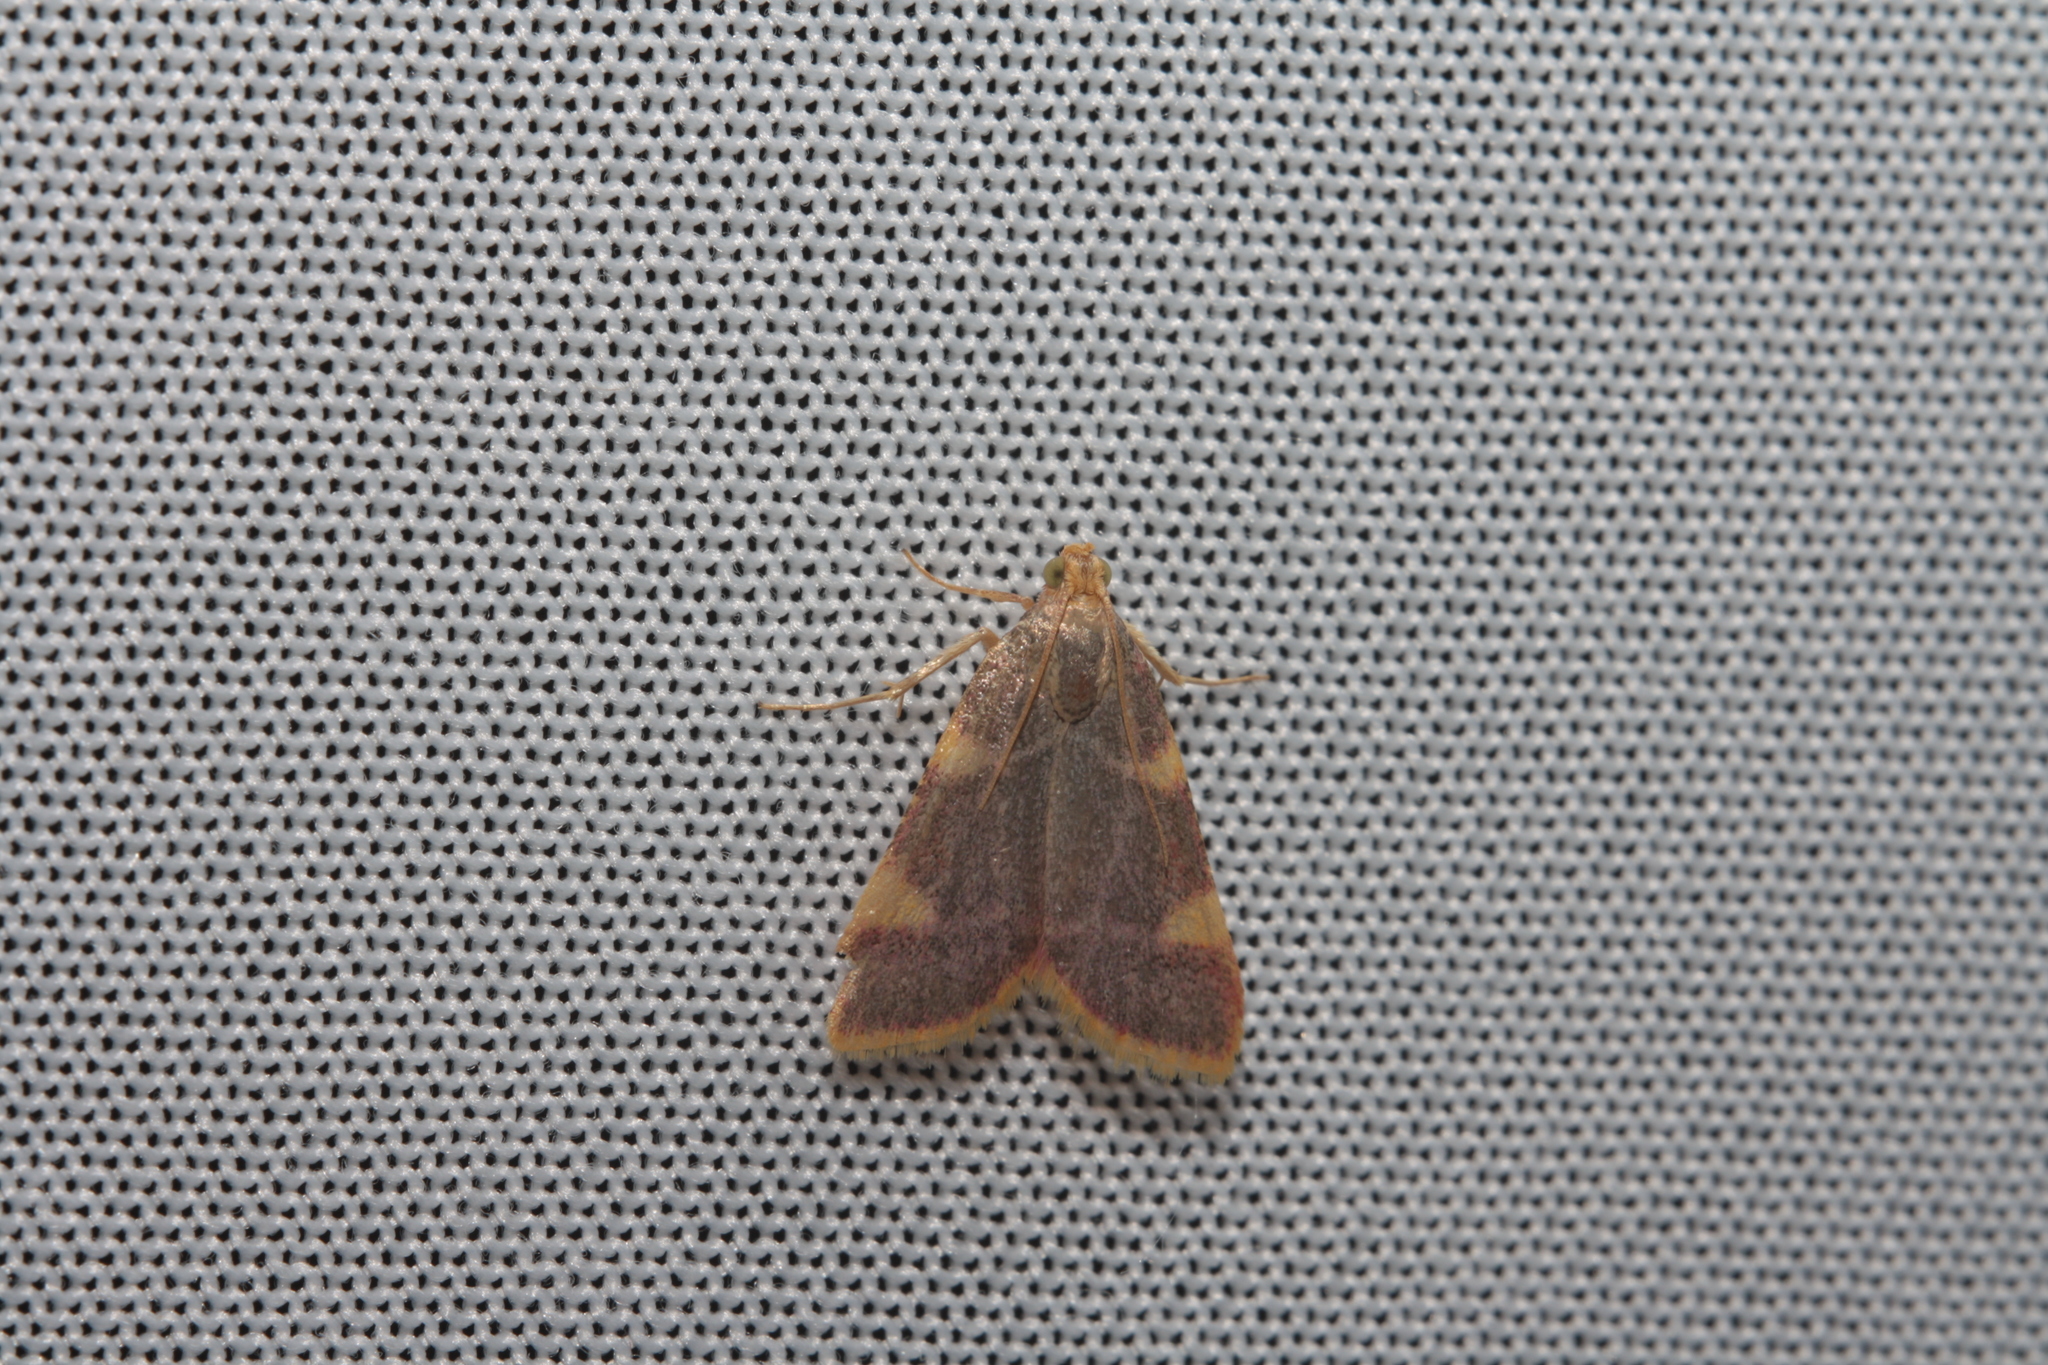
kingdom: Animalia
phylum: Arthropoda
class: Insecta
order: Lepidoptera
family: Pyralidae
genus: Hypsopygia
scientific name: Hypsopygia costalis
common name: Gold triangle
